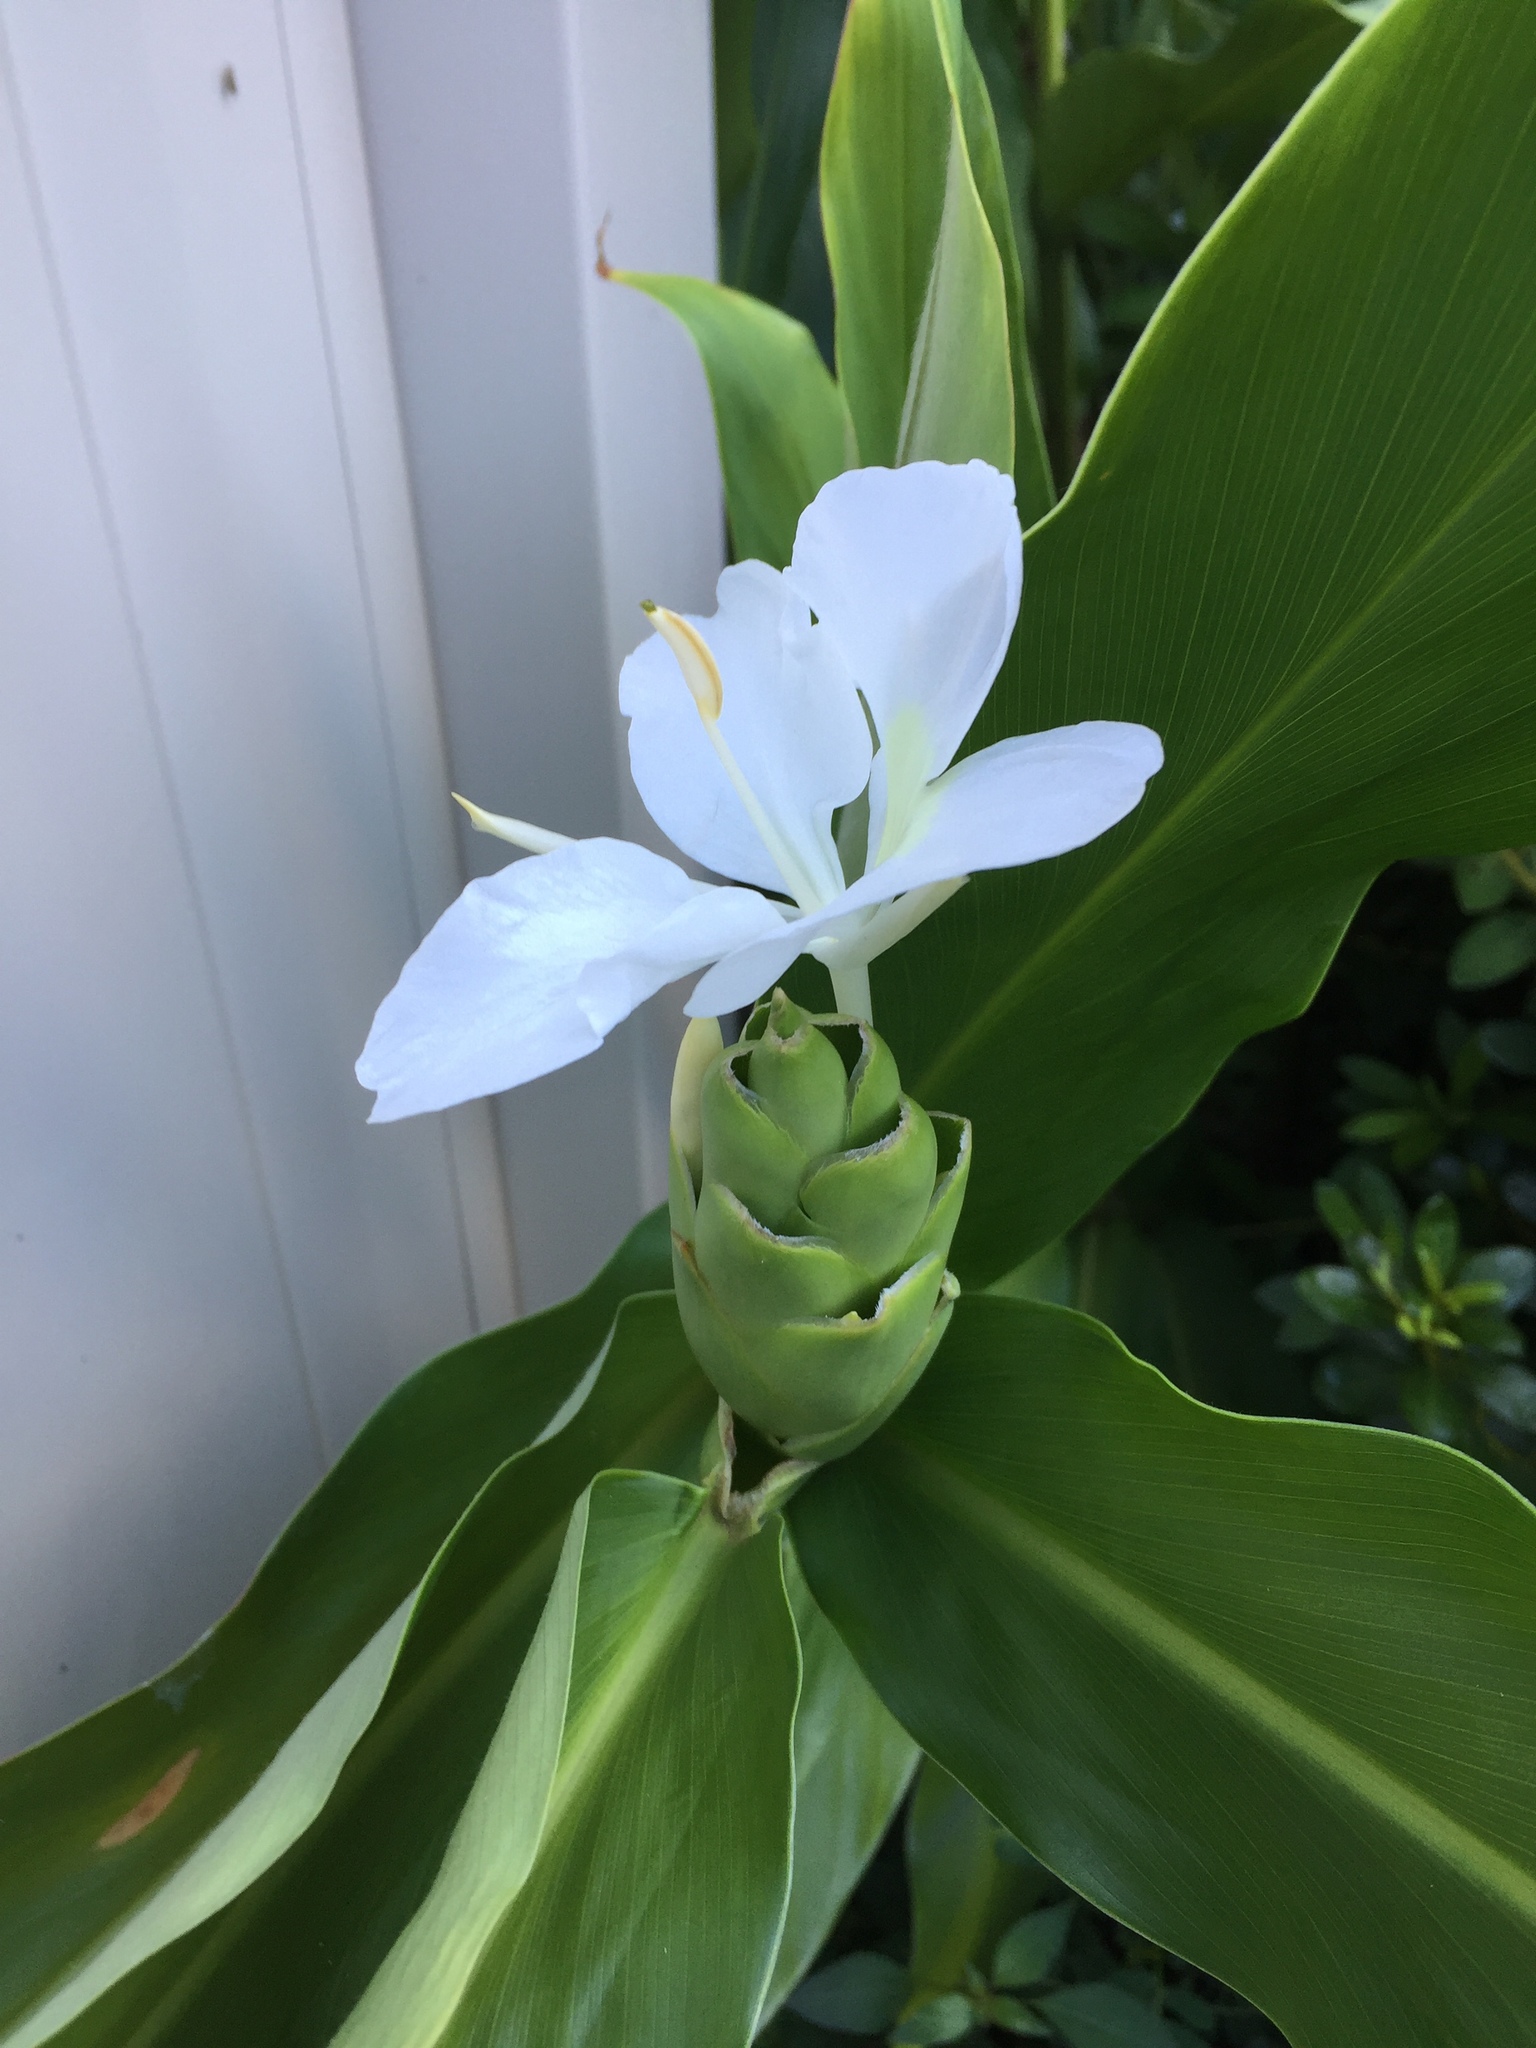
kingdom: Plantae
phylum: Tracheophyta
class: Liliopsida
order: Zingiberales
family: Zingiberaceae
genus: Hedychium
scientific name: Hedychium coronarium
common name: White garland-lily
